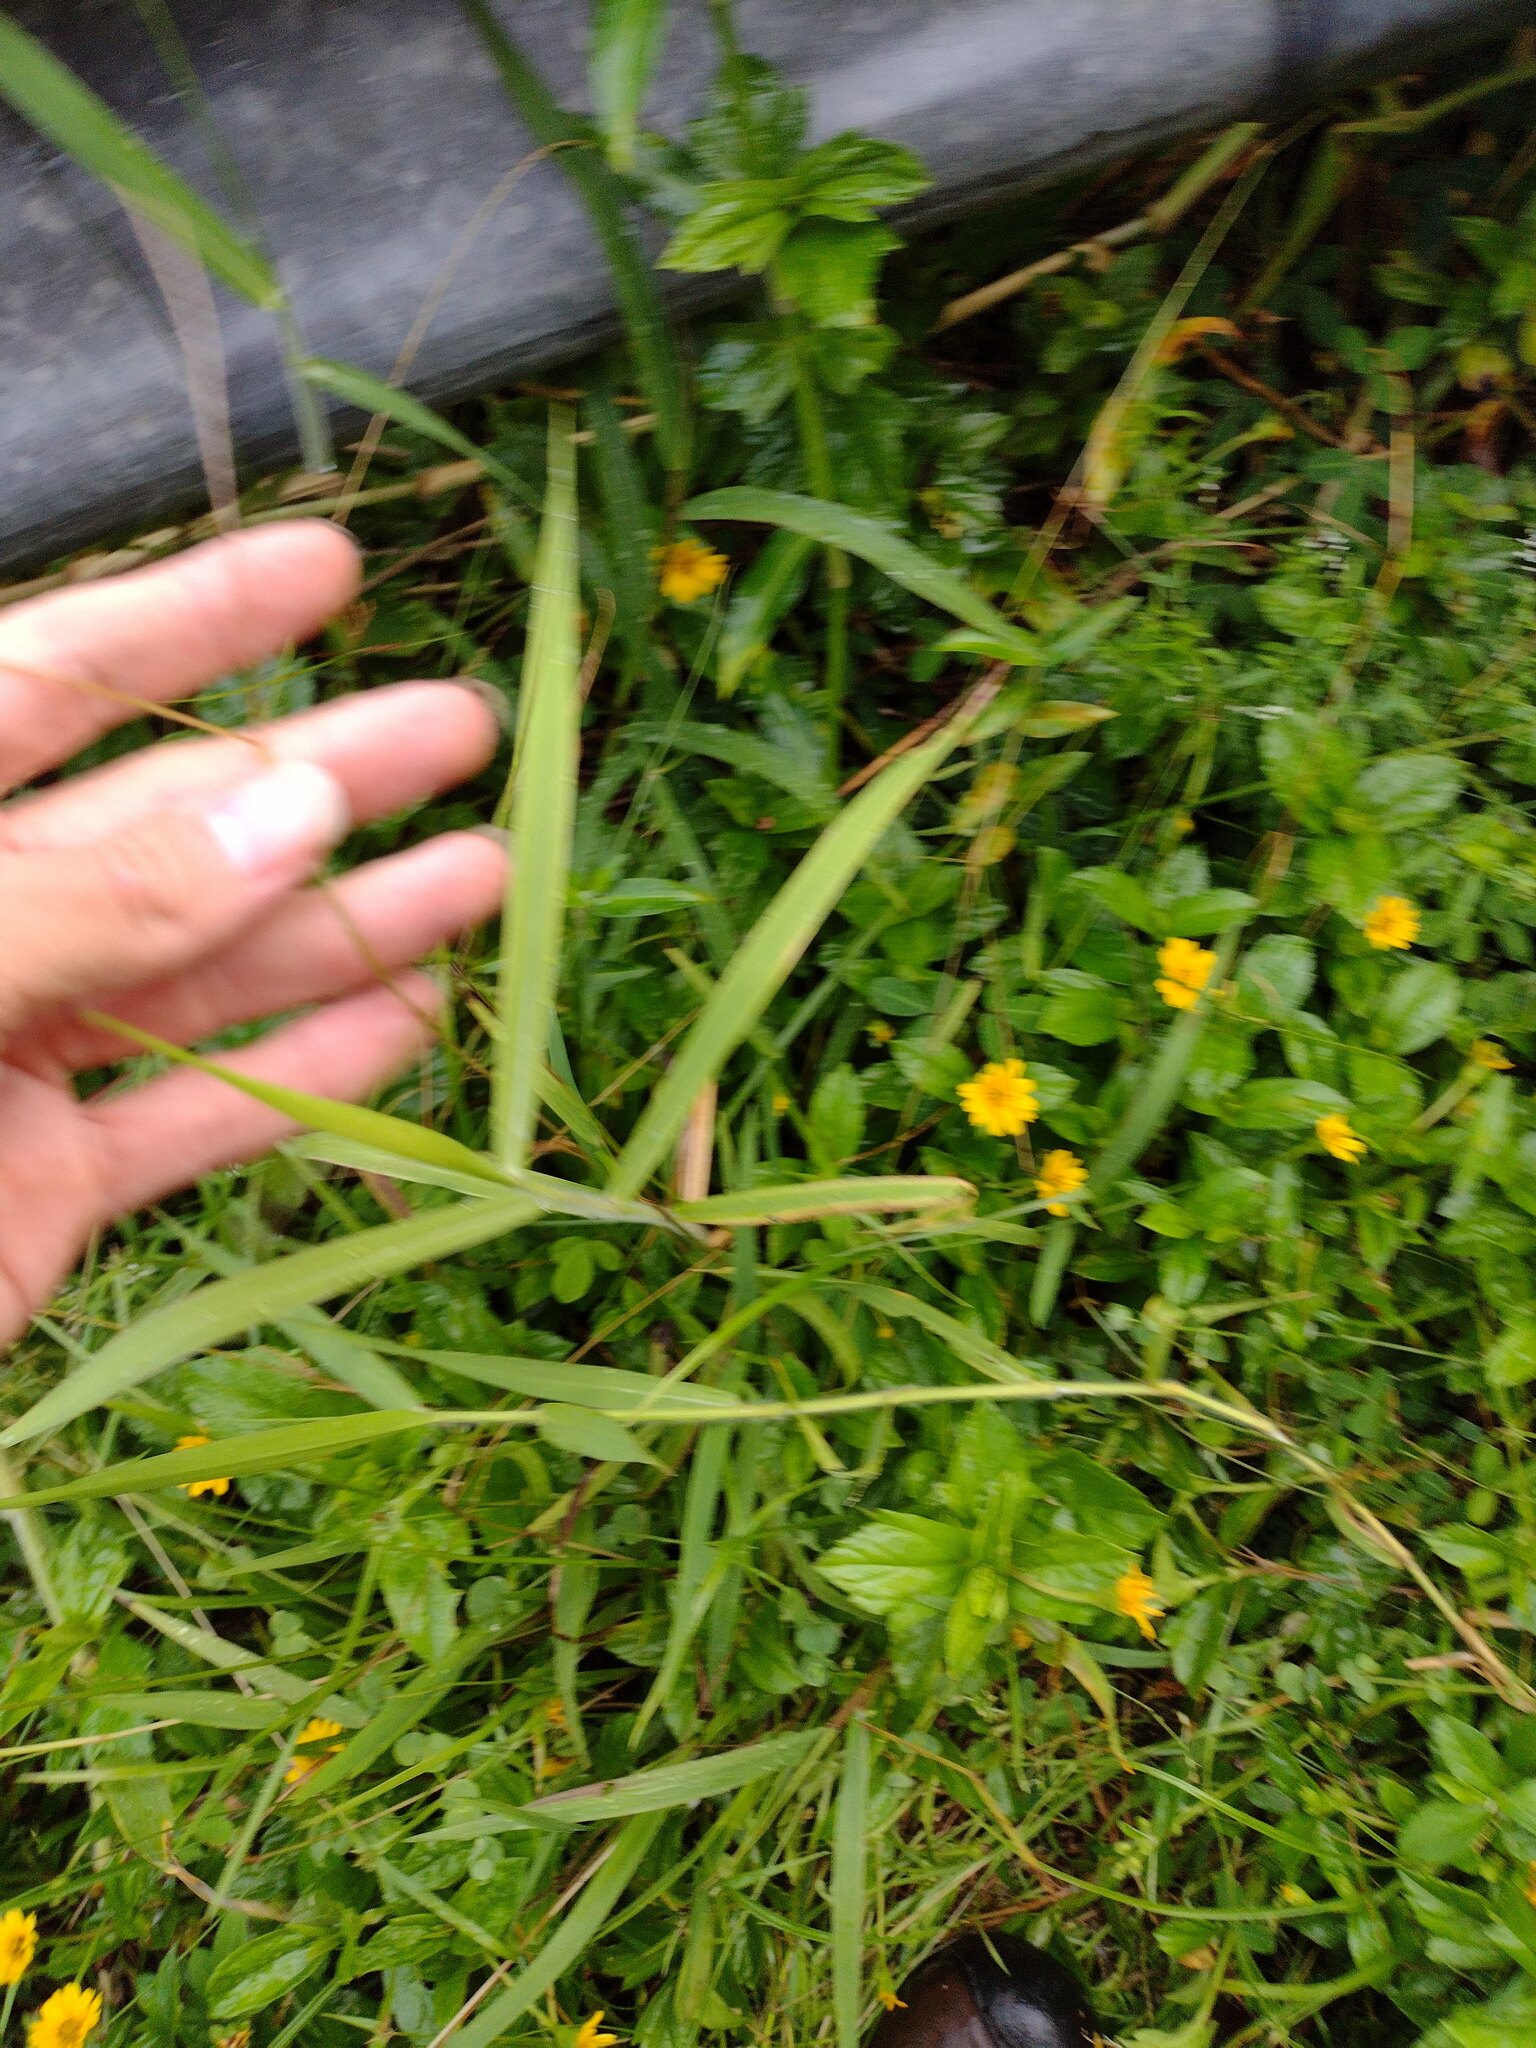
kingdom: Plantae
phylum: Tracheophyta
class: Liliopsida
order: Poales
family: Poaceae
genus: Urochloa
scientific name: Urochloa mutica
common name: Para grass
